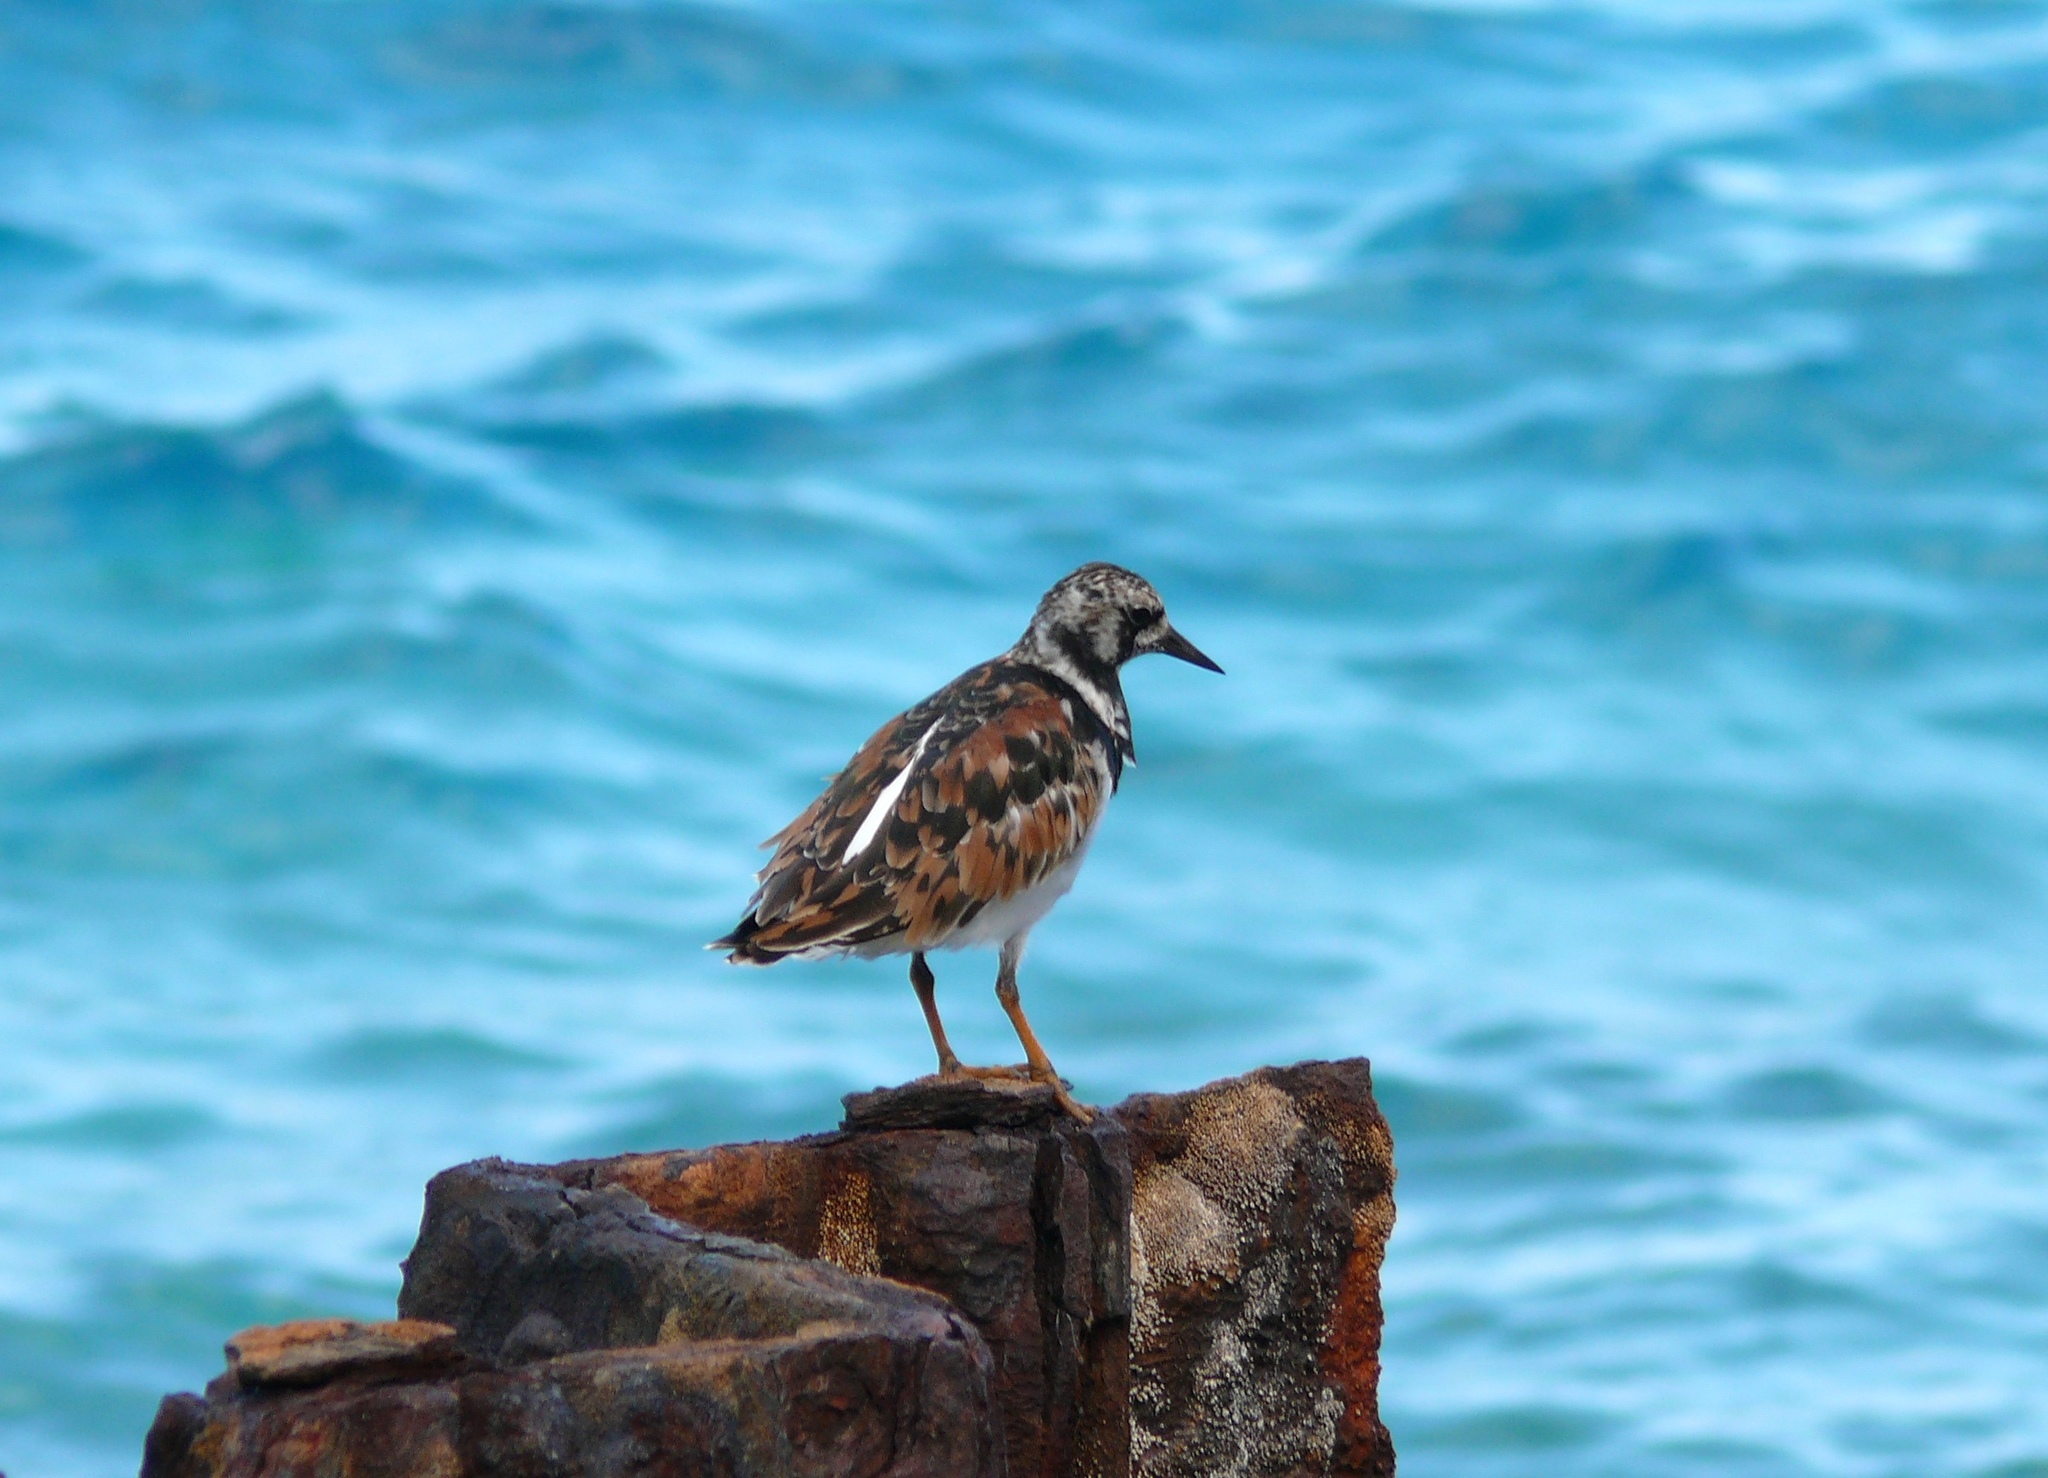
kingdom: Animalia
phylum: Chordata
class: Aves
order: Charadriiformes
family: Scolopacidae
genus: Arenaria
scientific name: Arenaria interpres
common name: Ruddy turnstone
